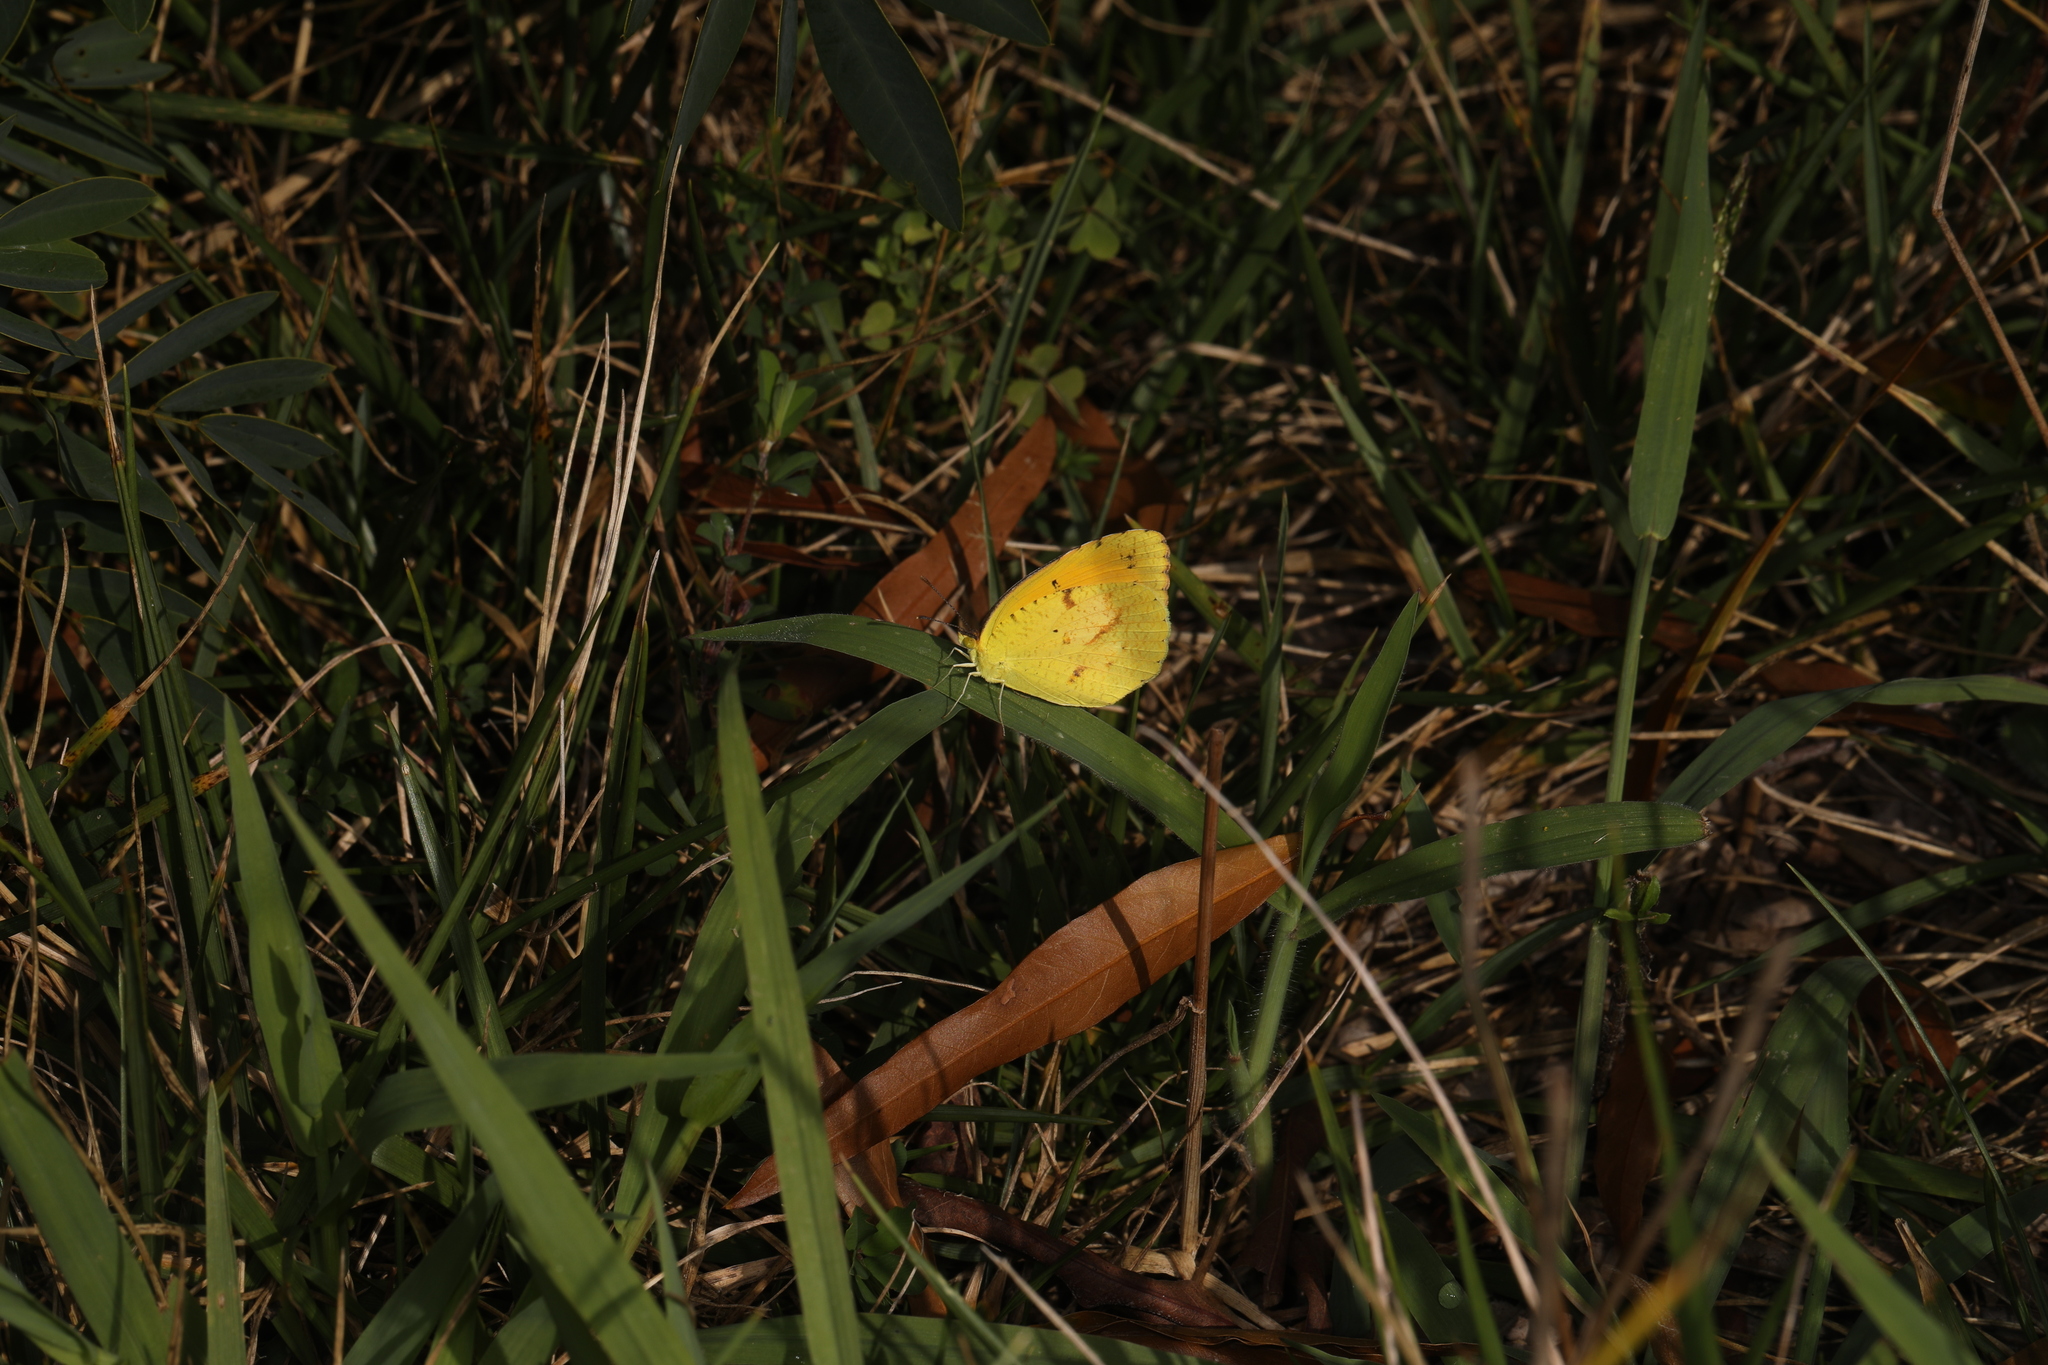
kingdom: Animalia
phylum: Arthropoda
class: Insecta
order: Lepidoptera
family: Pieridae
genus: Abaeis
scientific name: Abaeis nicippe
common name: Sleepy orange
